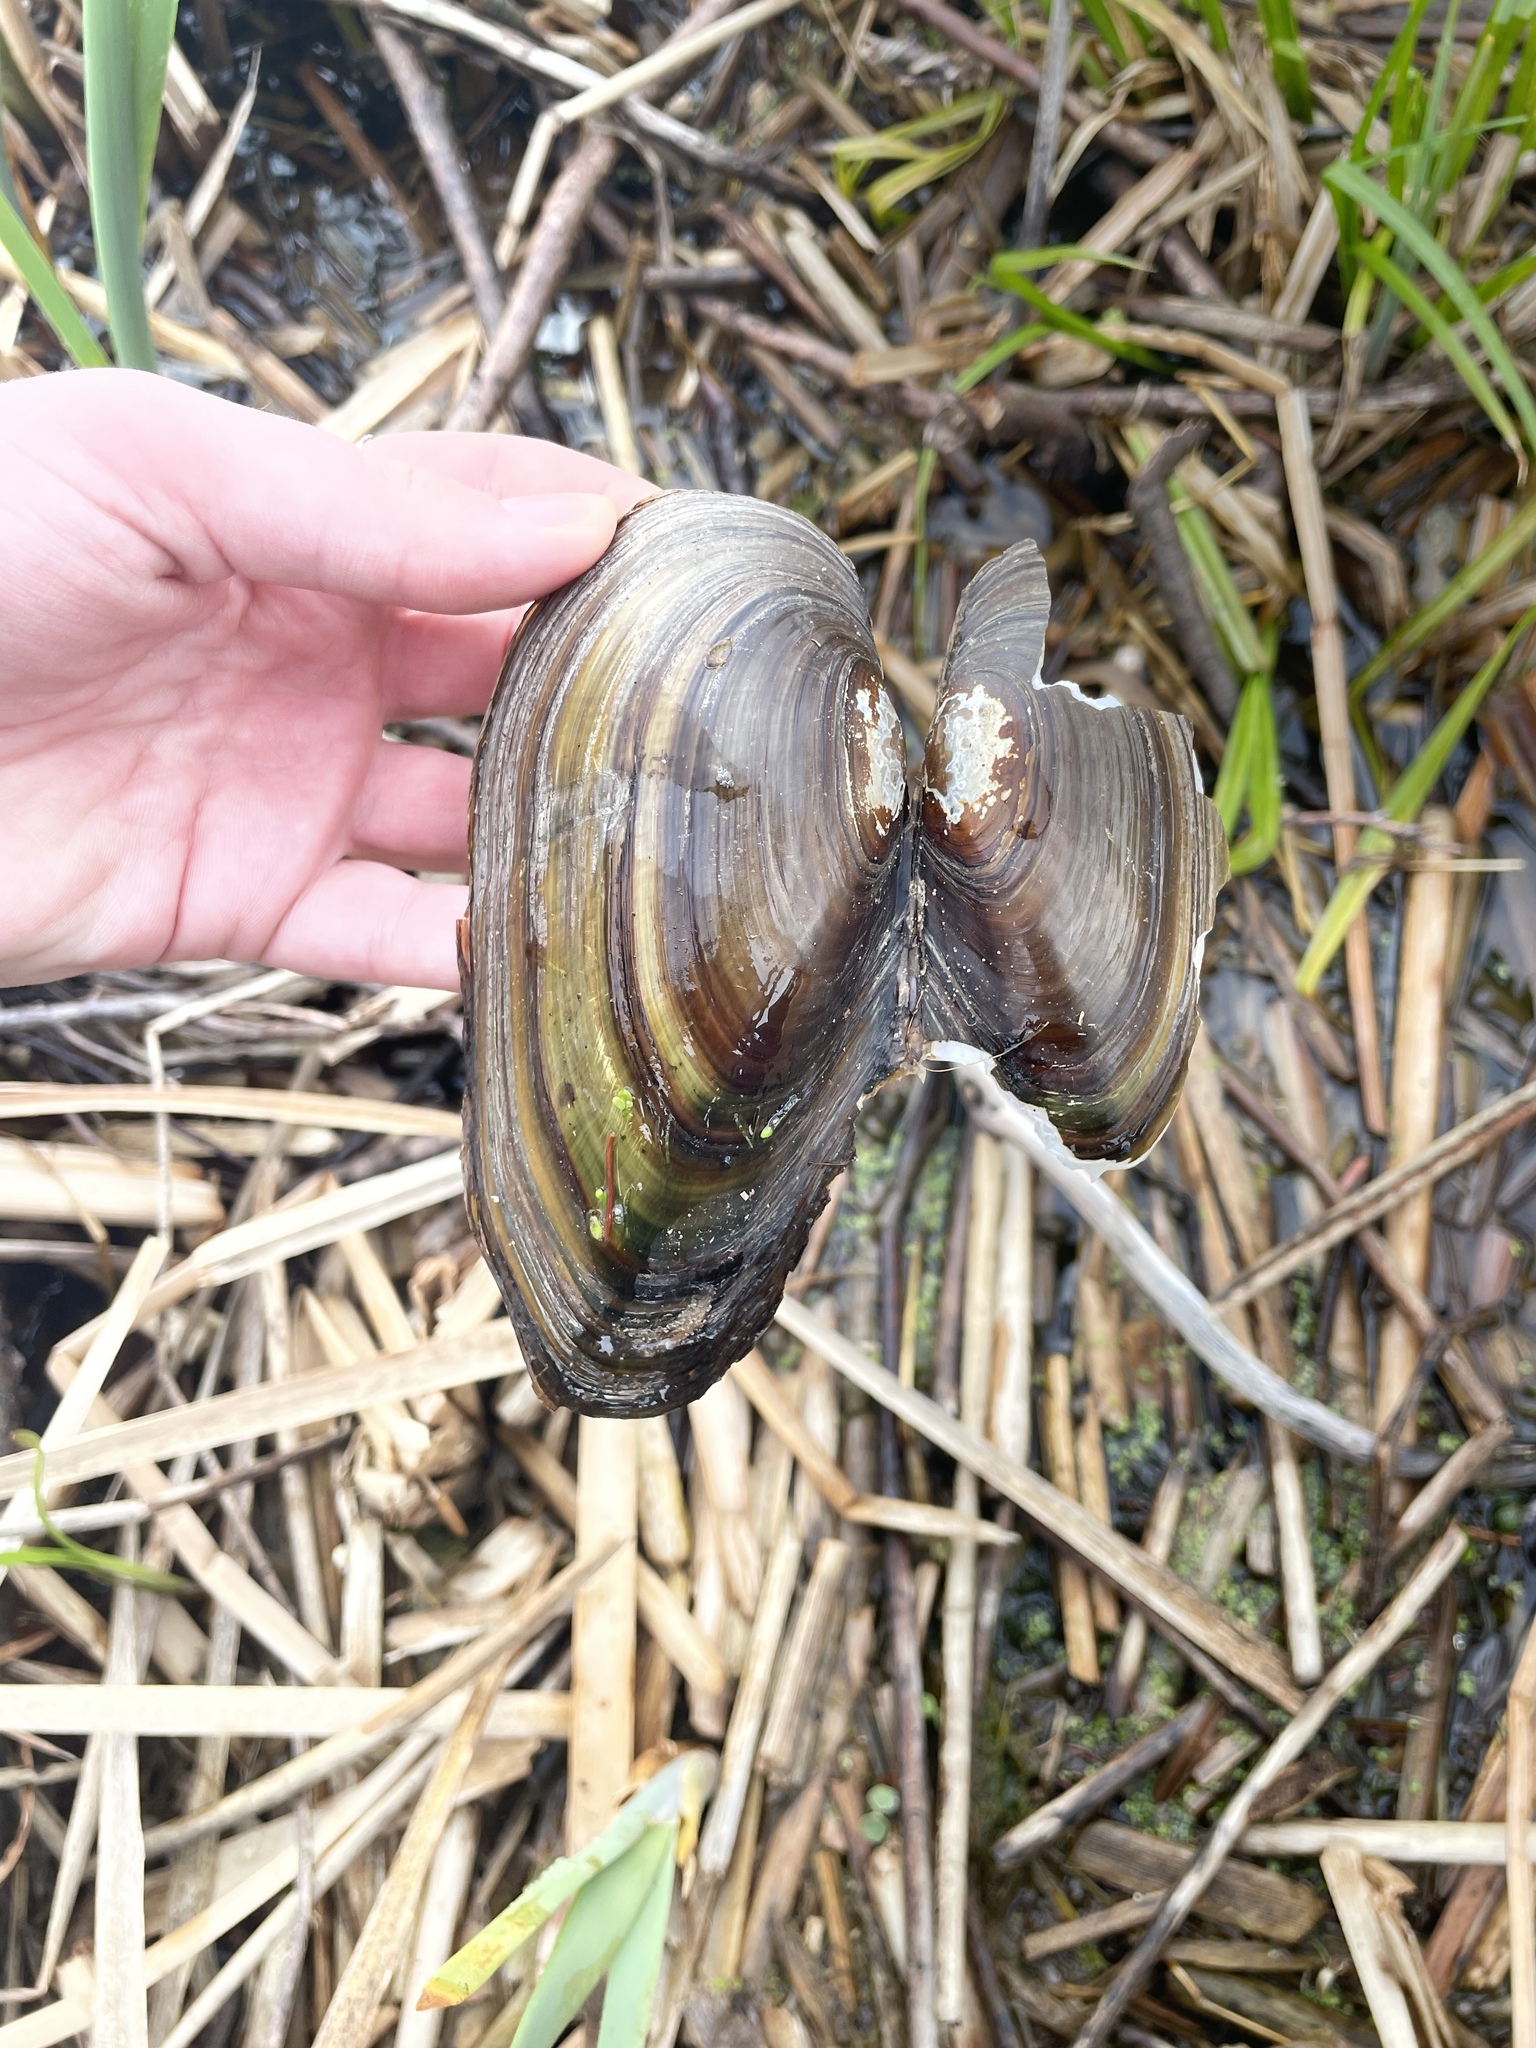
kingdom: Animalia
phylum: Mollusca
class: Bivalvia
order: Unionida
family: Unionidae
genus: Pyganodon
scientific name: Pyganodon cataracta
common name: Eastern floater
